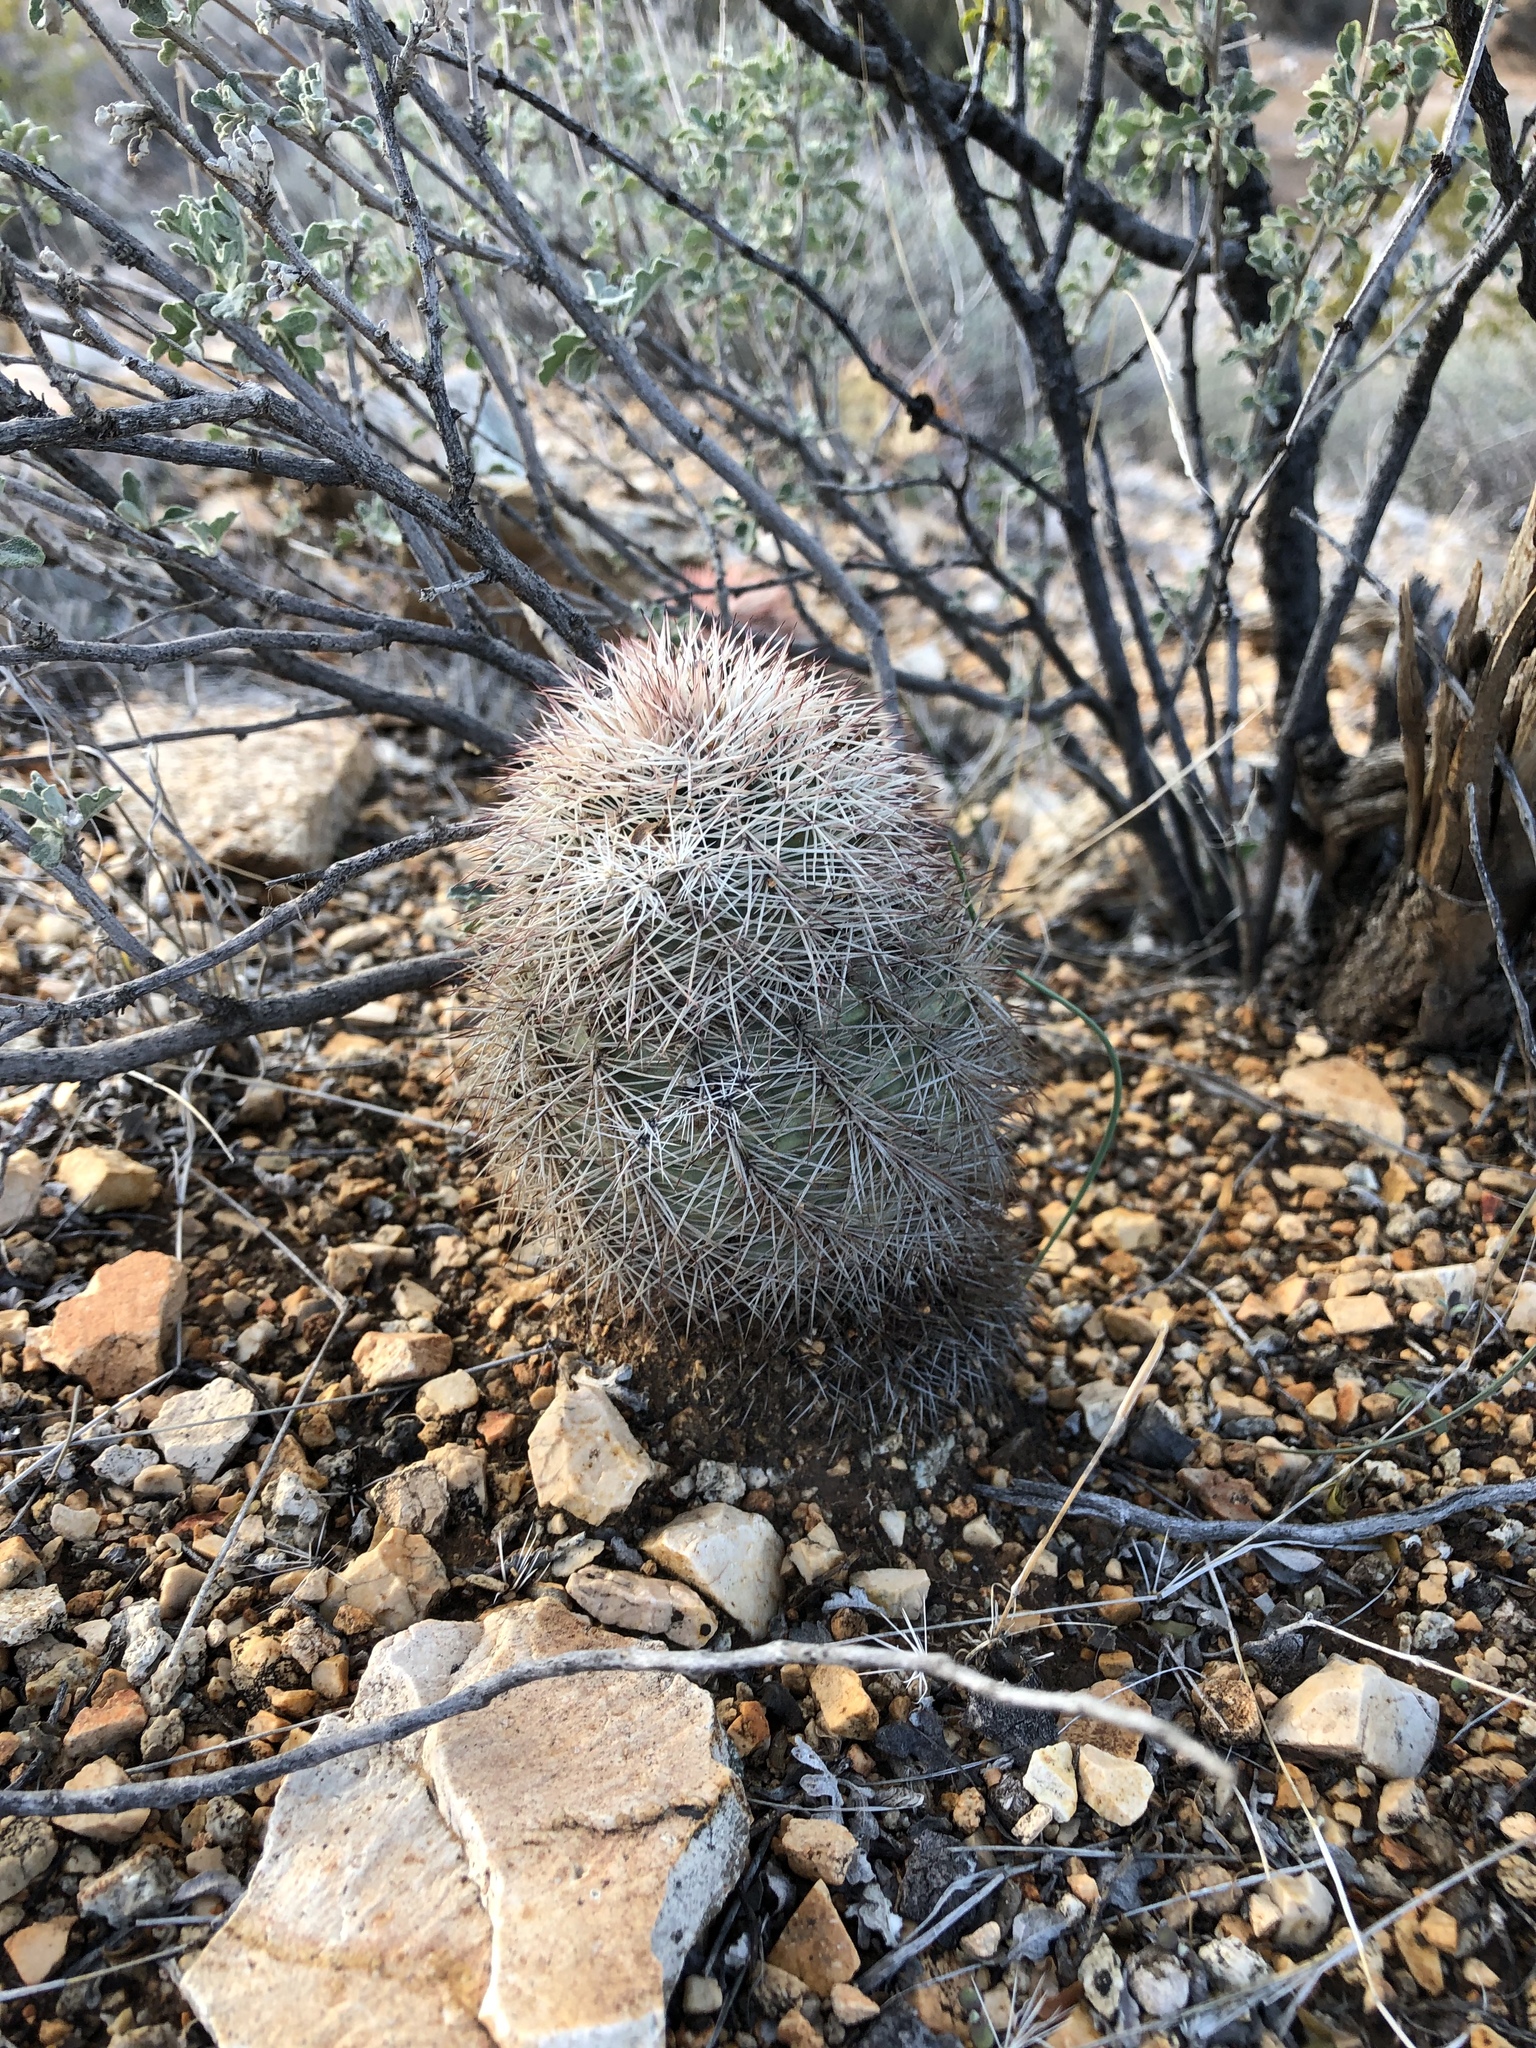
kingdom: Plantae
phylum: Tracheophyta
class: Magnoliopsida
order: Caryophyllales
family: Cactaceae
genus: Echinocereus
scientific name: Echinocereus dasyacanthus
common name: Spiny hedgehog cactus
